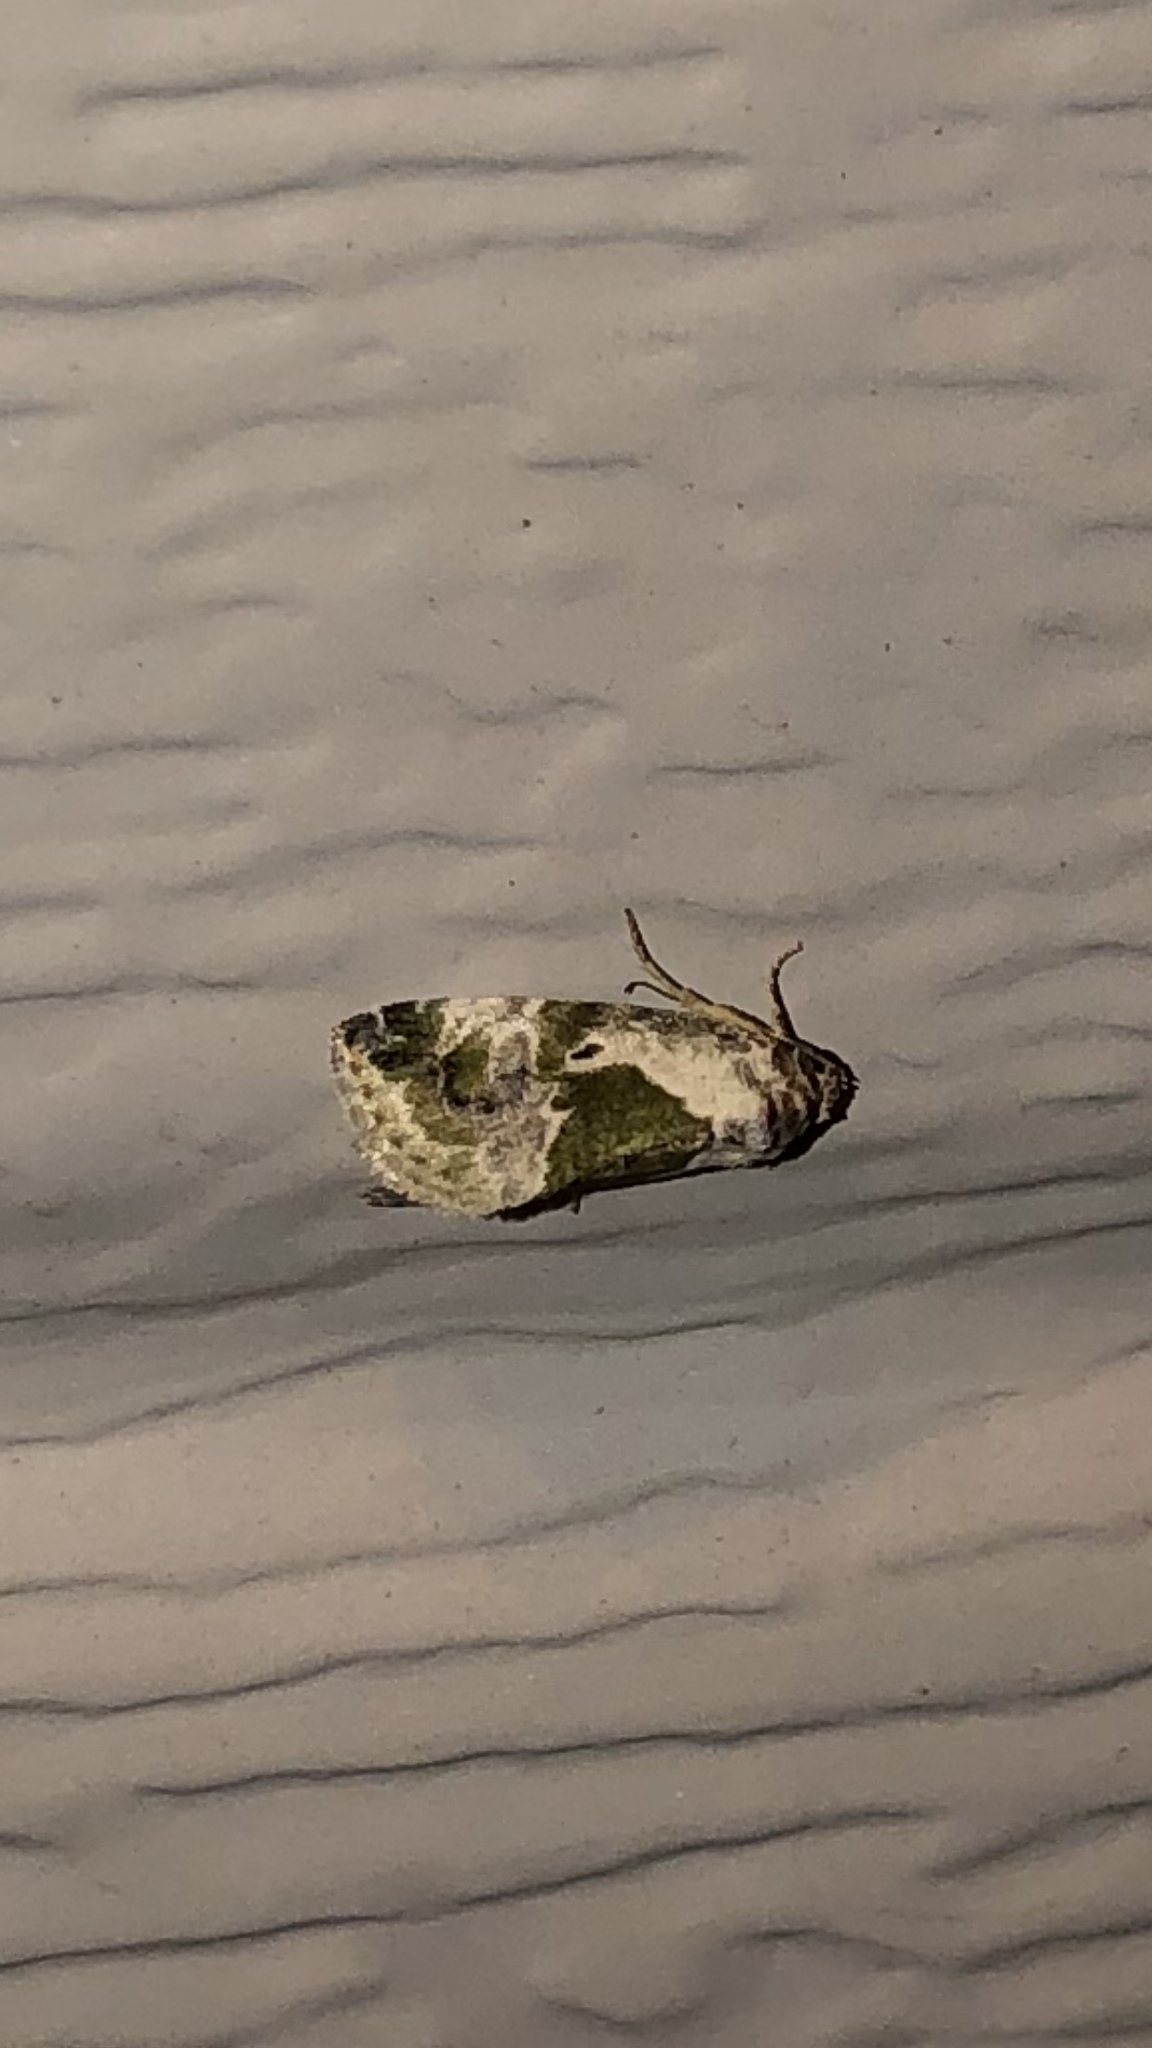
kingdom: Animalia
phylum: Arthropoda
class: Insecta
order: Lepidoptera
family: Noctuidae
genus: Maliattha
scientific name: Maliattha synochitis
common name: Black-dotted glyph
